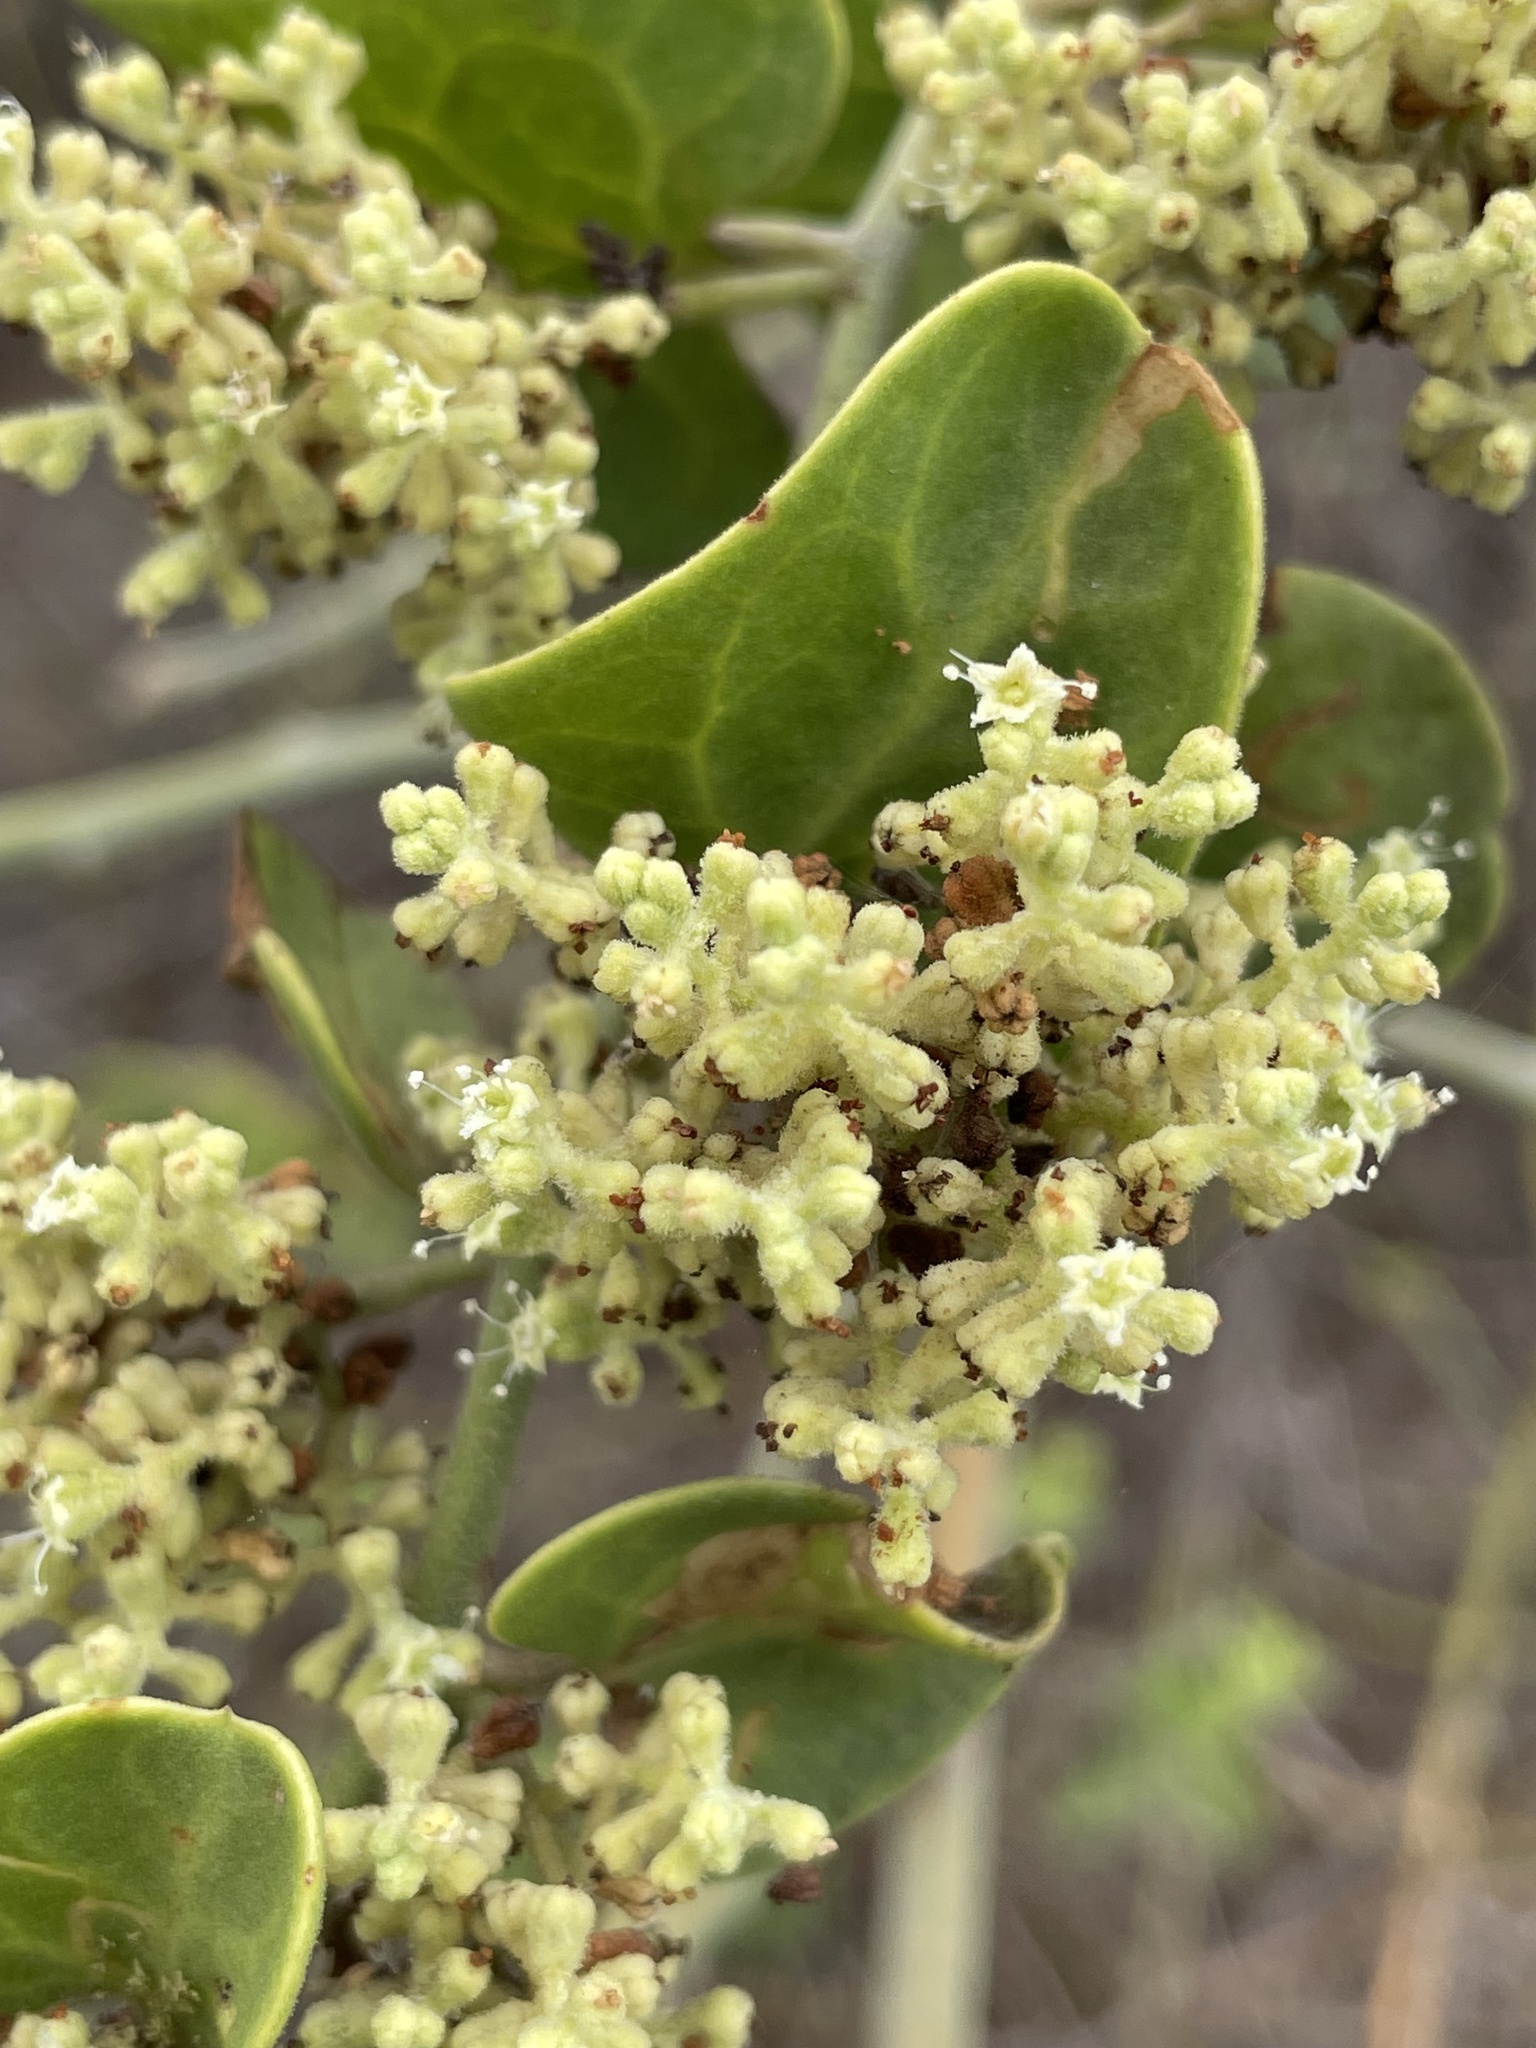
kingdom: Plantae
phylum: Tracheophyta
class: Magnoliopsida
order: Caryophyllales
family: Nyctaginaceae
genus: Cryptocarpus
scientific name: Cryptocarpus pyriformis
